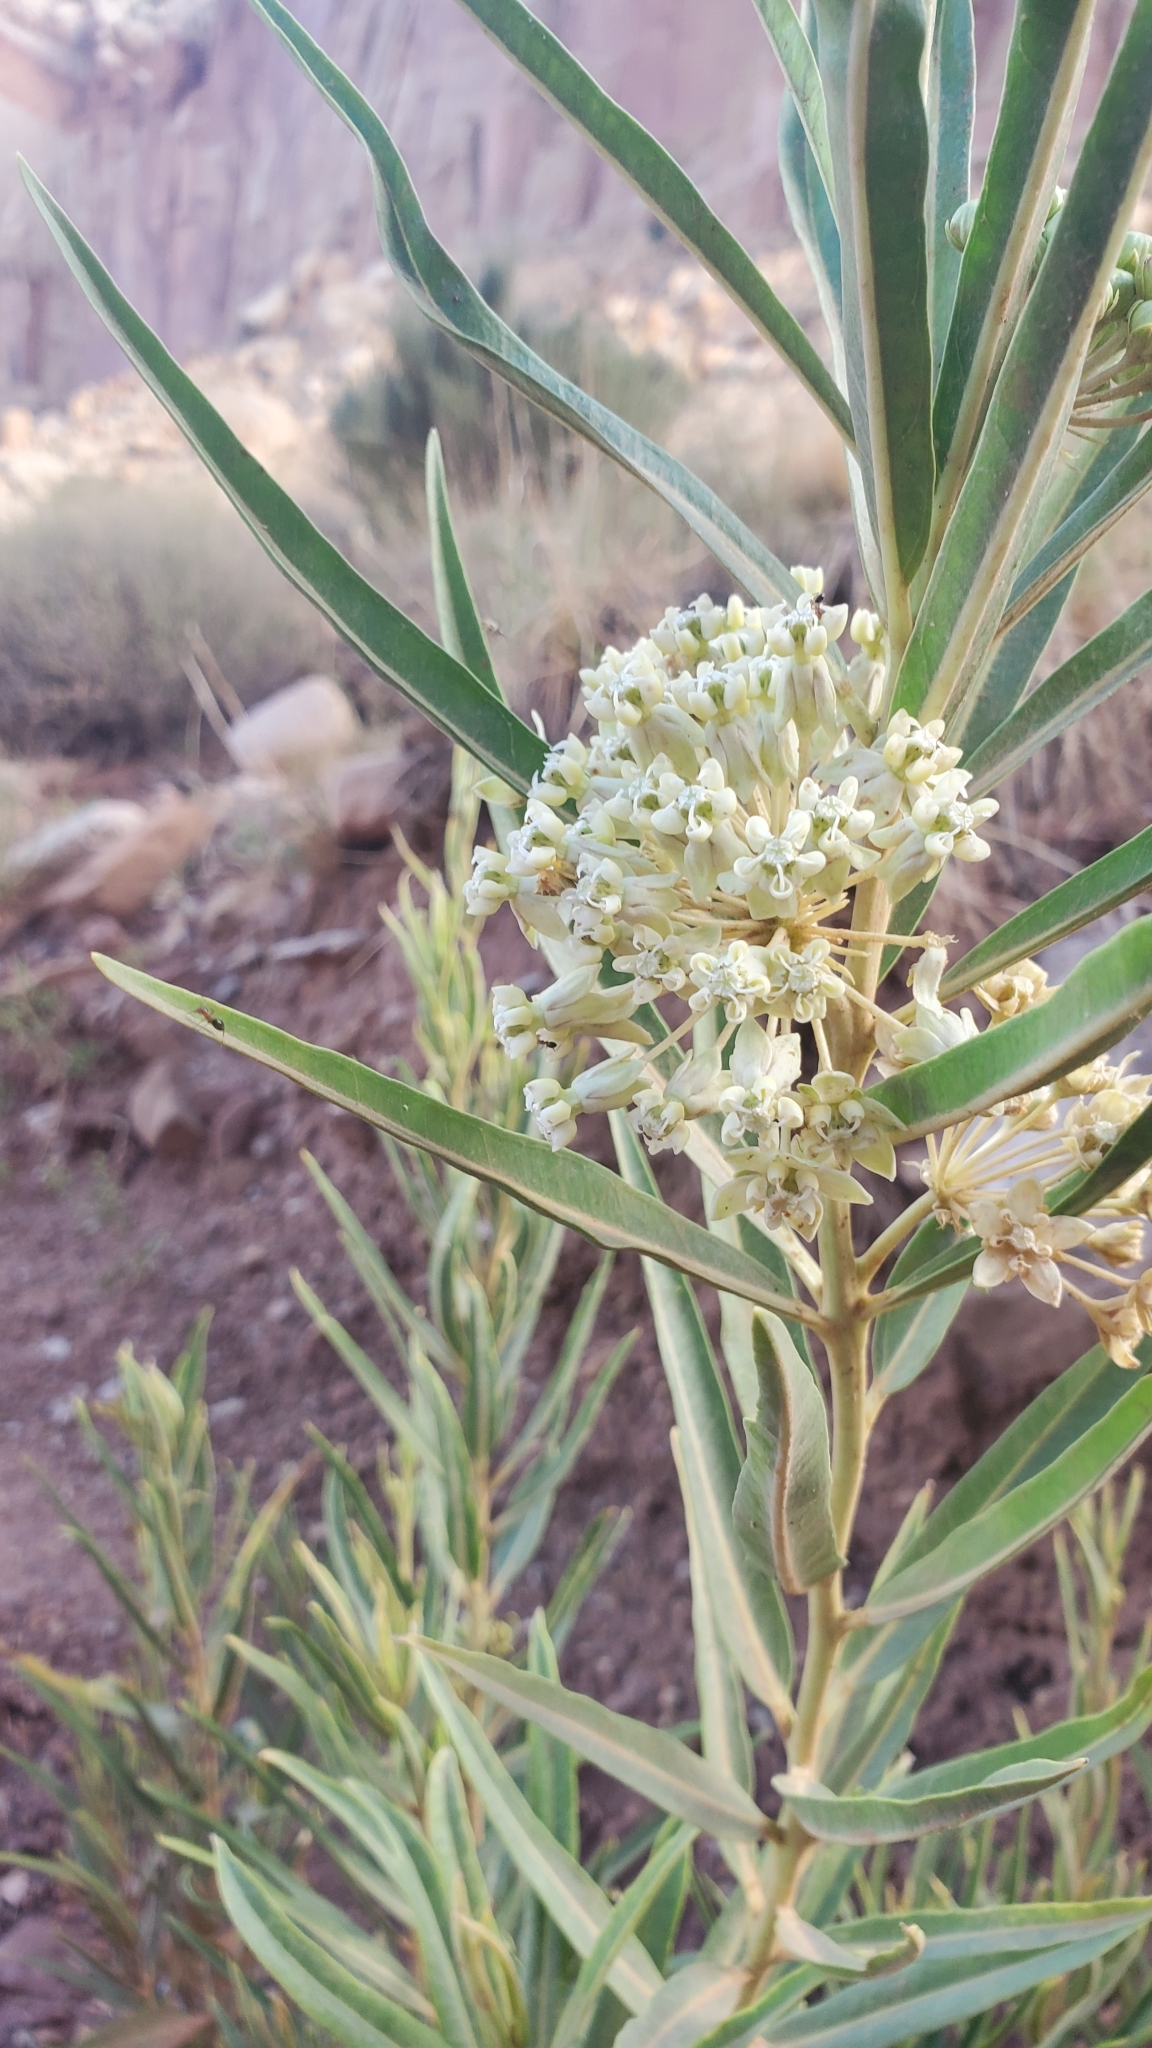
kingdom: Plantae
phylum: Tracheophyta
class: Magnoliopsida
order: Gentianales
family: Apocynaceae
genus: Asclepias
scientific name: Asclepias labriformis
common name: Labriformis milkweed
